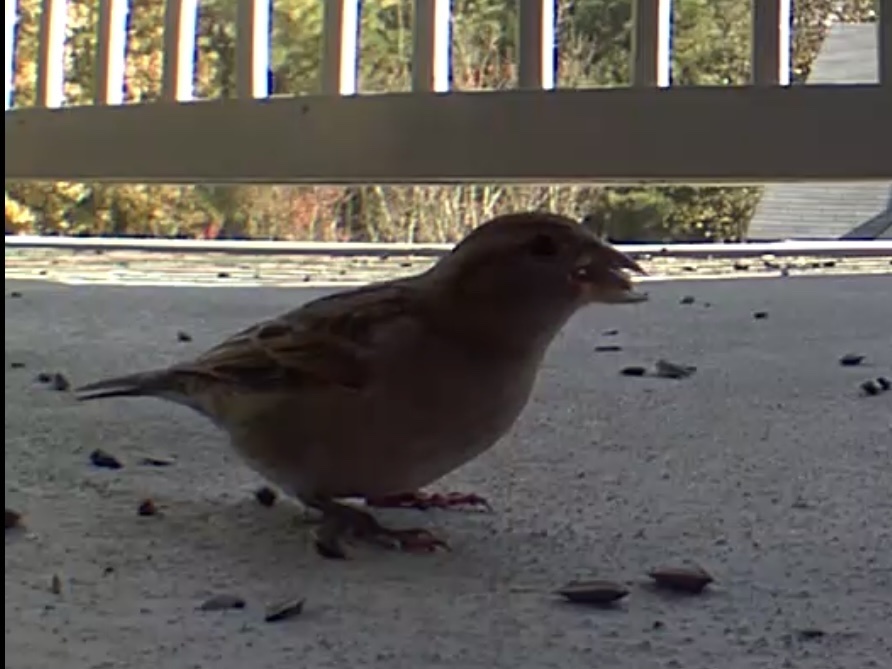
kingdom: Animalia
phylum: Chordata
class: Aves
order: Passeriformes
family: Passeridae
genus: Passer
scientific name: Passer domesticus
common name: House sparrow
